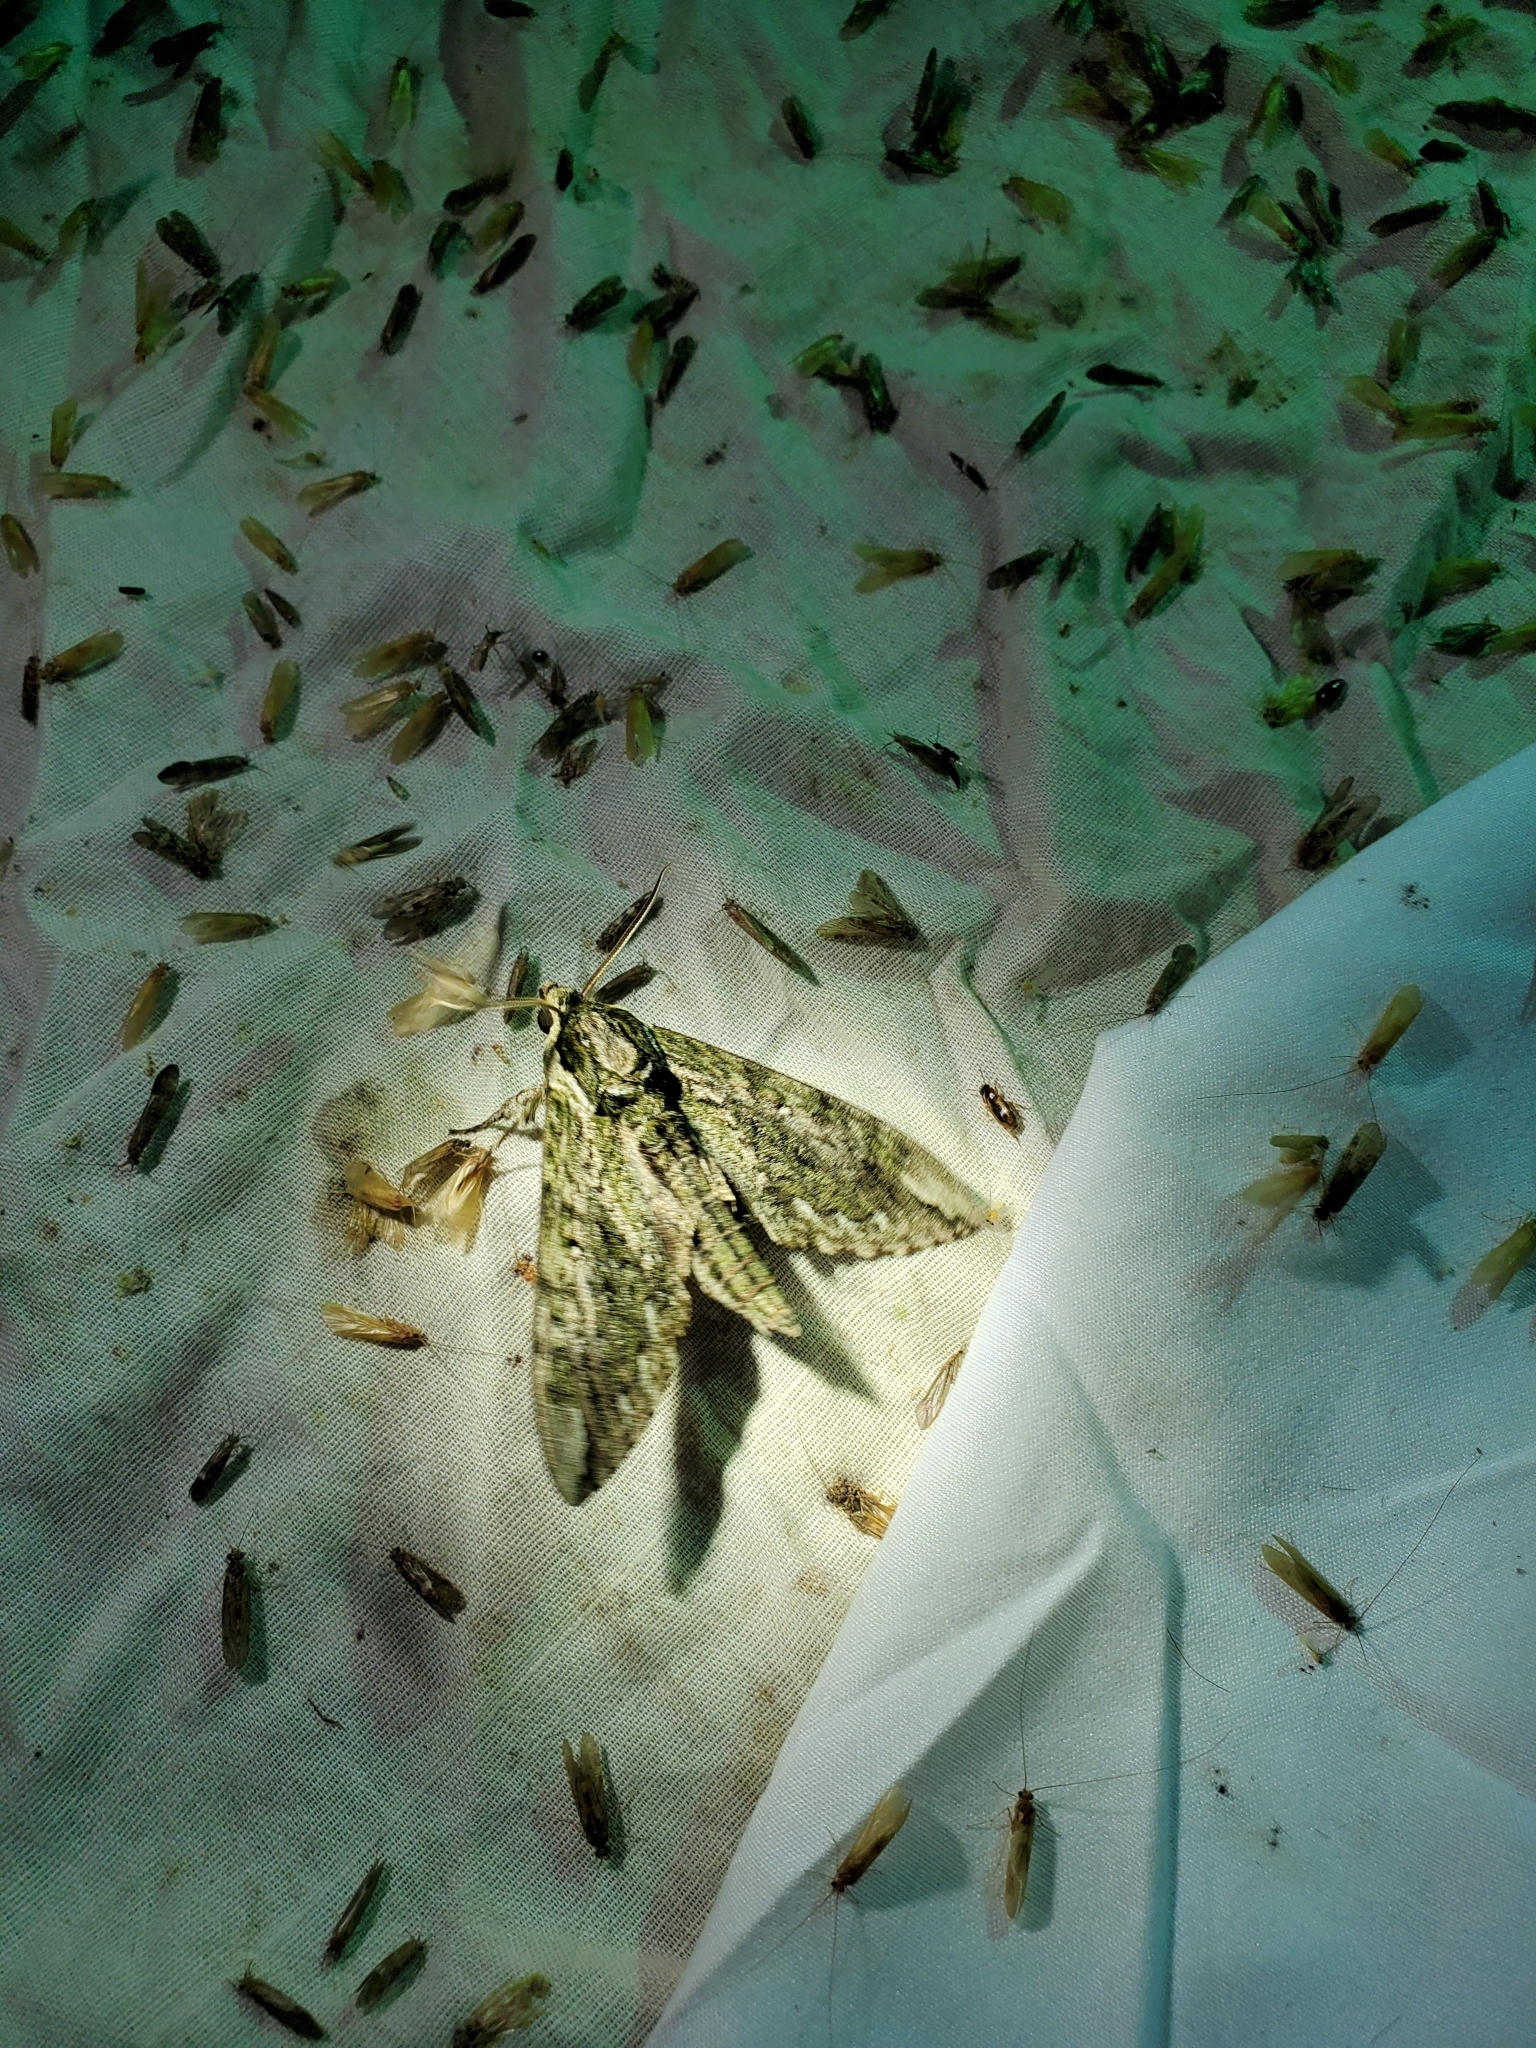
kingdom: Animalia
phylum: Arthropoda
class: Insecta
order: Lepidoptera
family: Sphingidae
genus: Ceratomia
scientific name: Ceratomia hageni
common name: Hagen's sphinx
